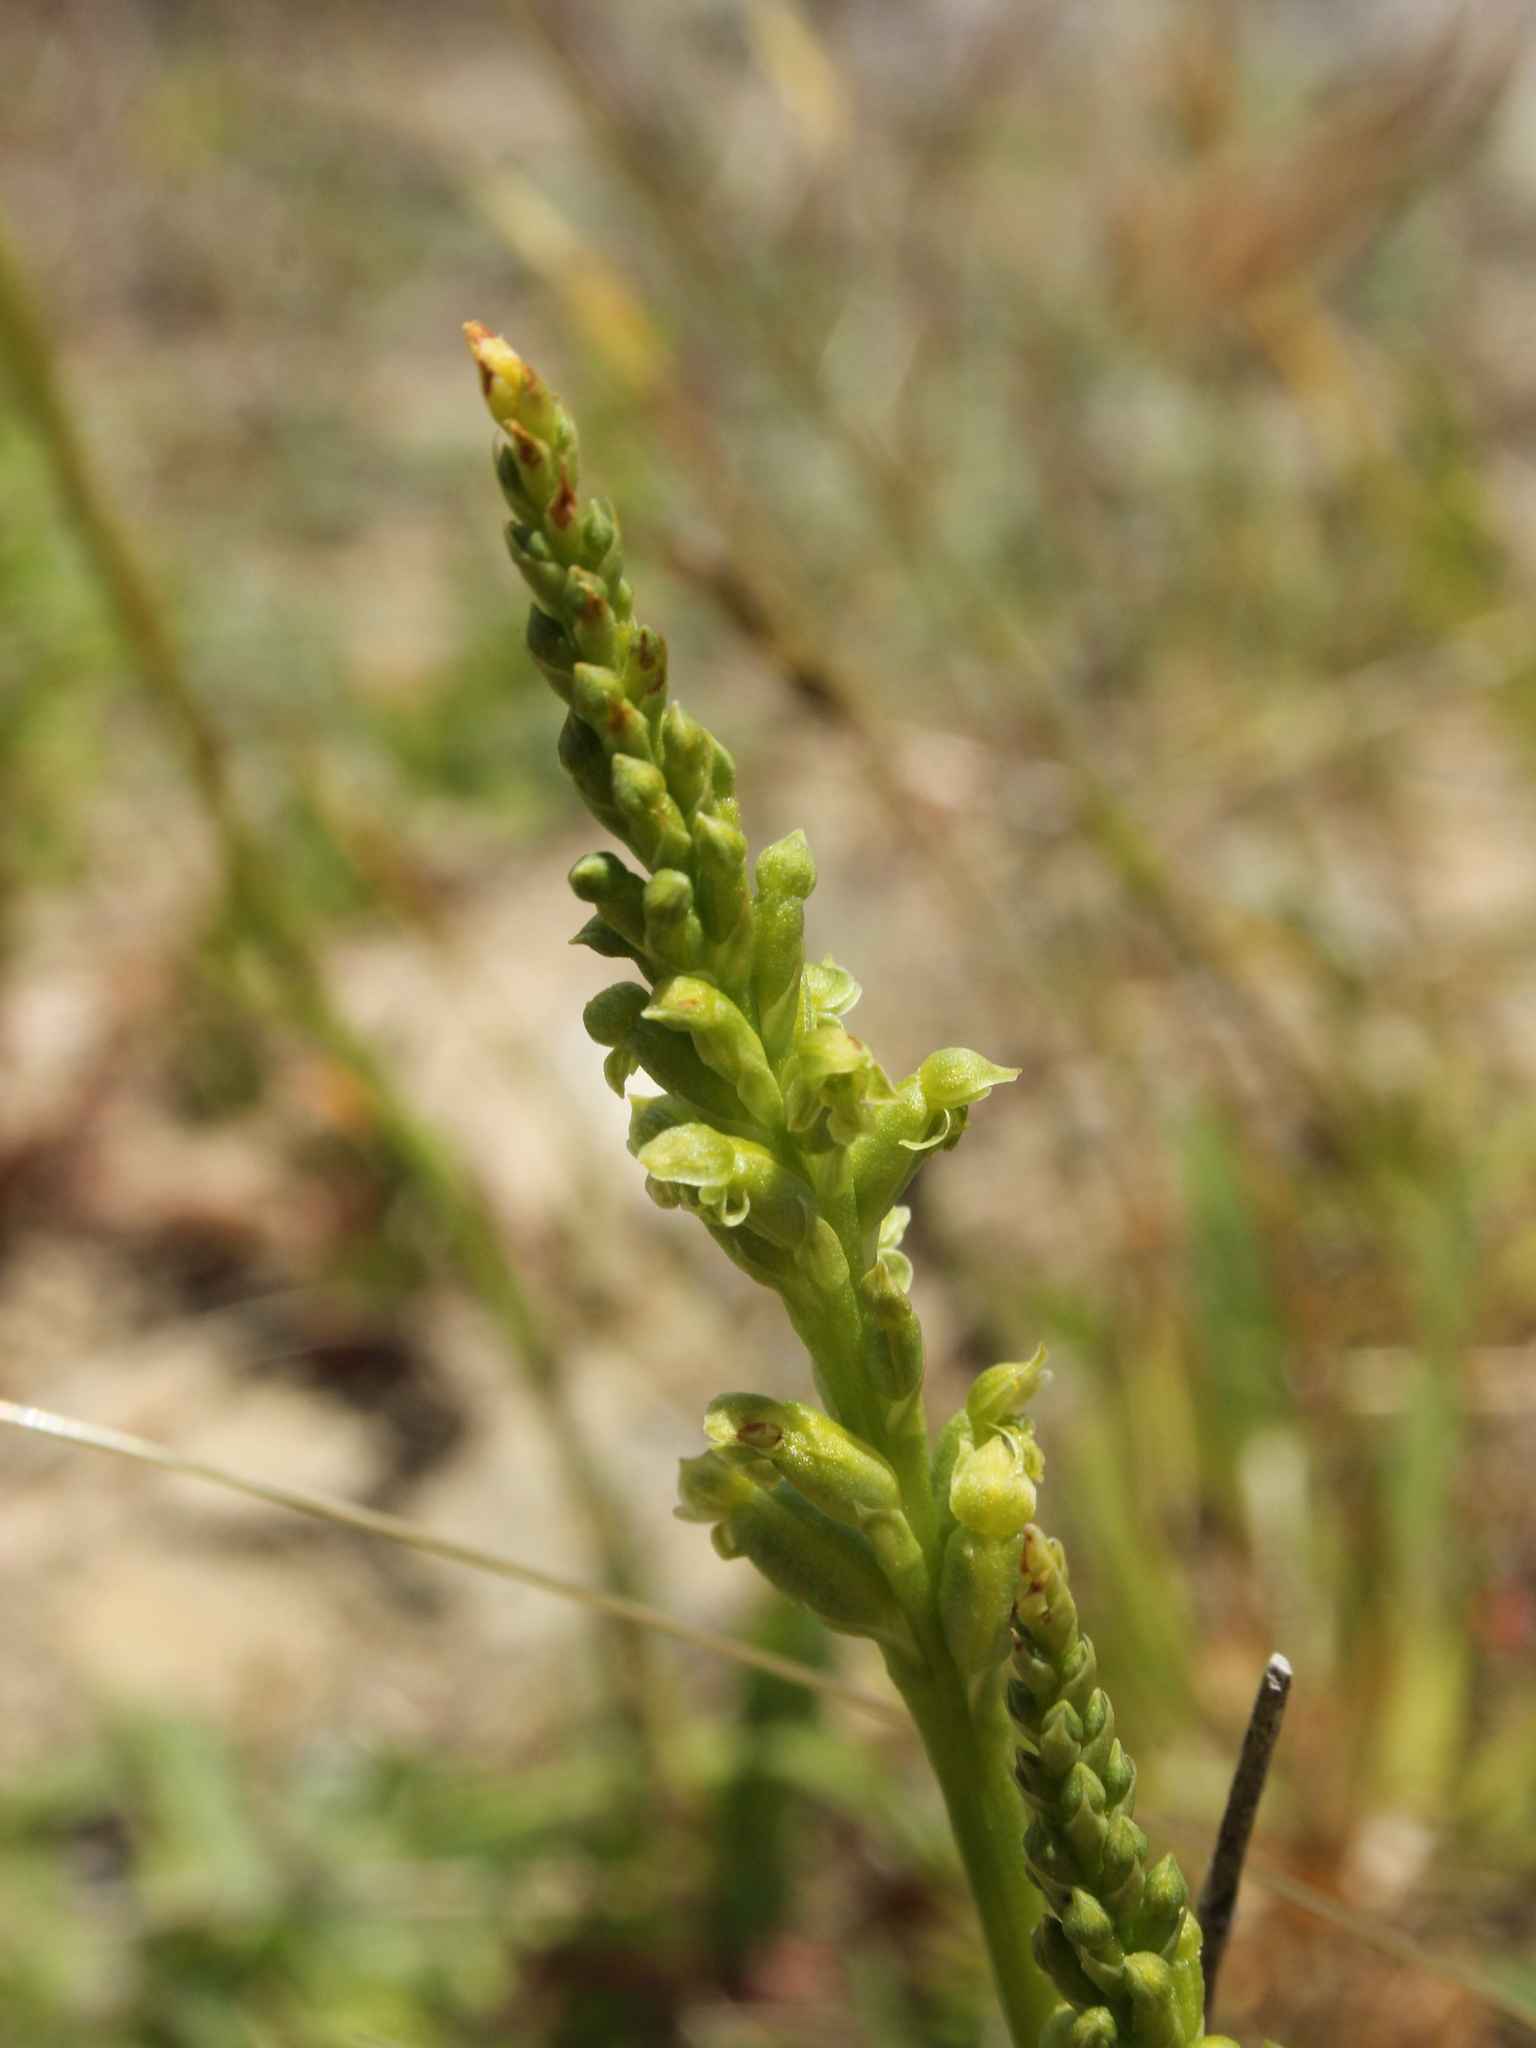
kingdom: Plantae
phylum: Tracheophyta
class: Liliopsida
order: Asparagales
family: Orchidaceae
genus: Microtis
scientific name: Microtis unifolia
